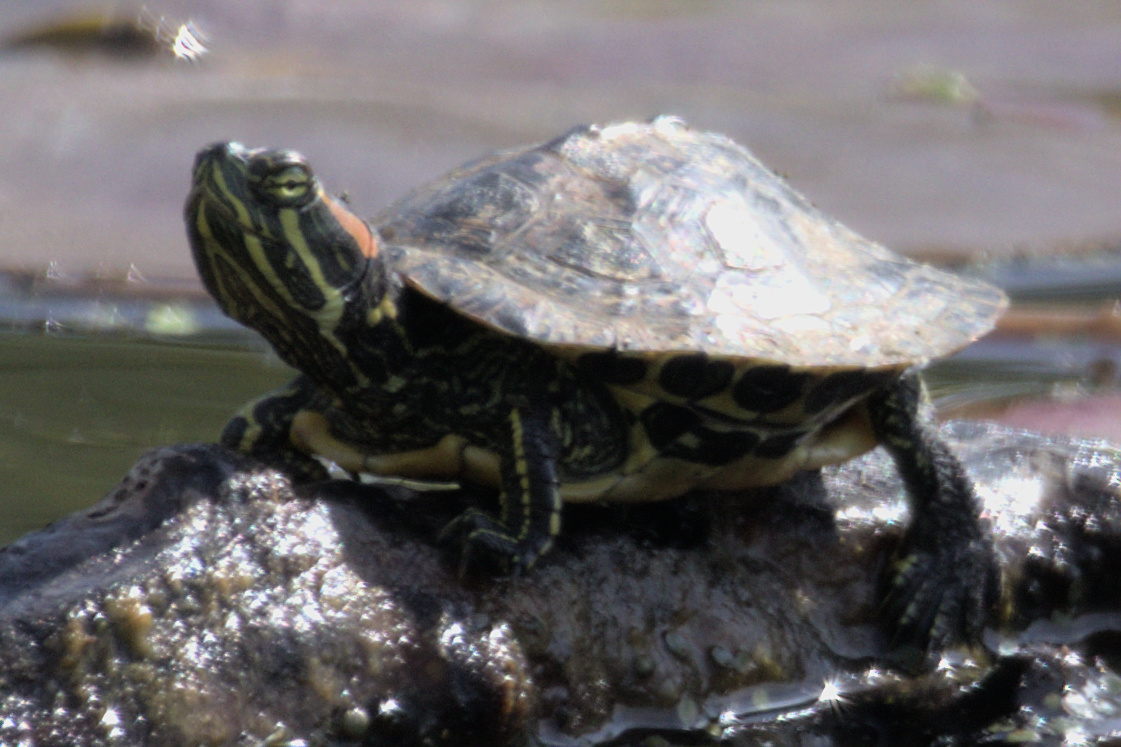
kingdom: Animalia
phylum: Chordata
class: Testudines
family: Emydidae
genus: Trachemys
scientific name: Trachemys scripta
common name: Slider
